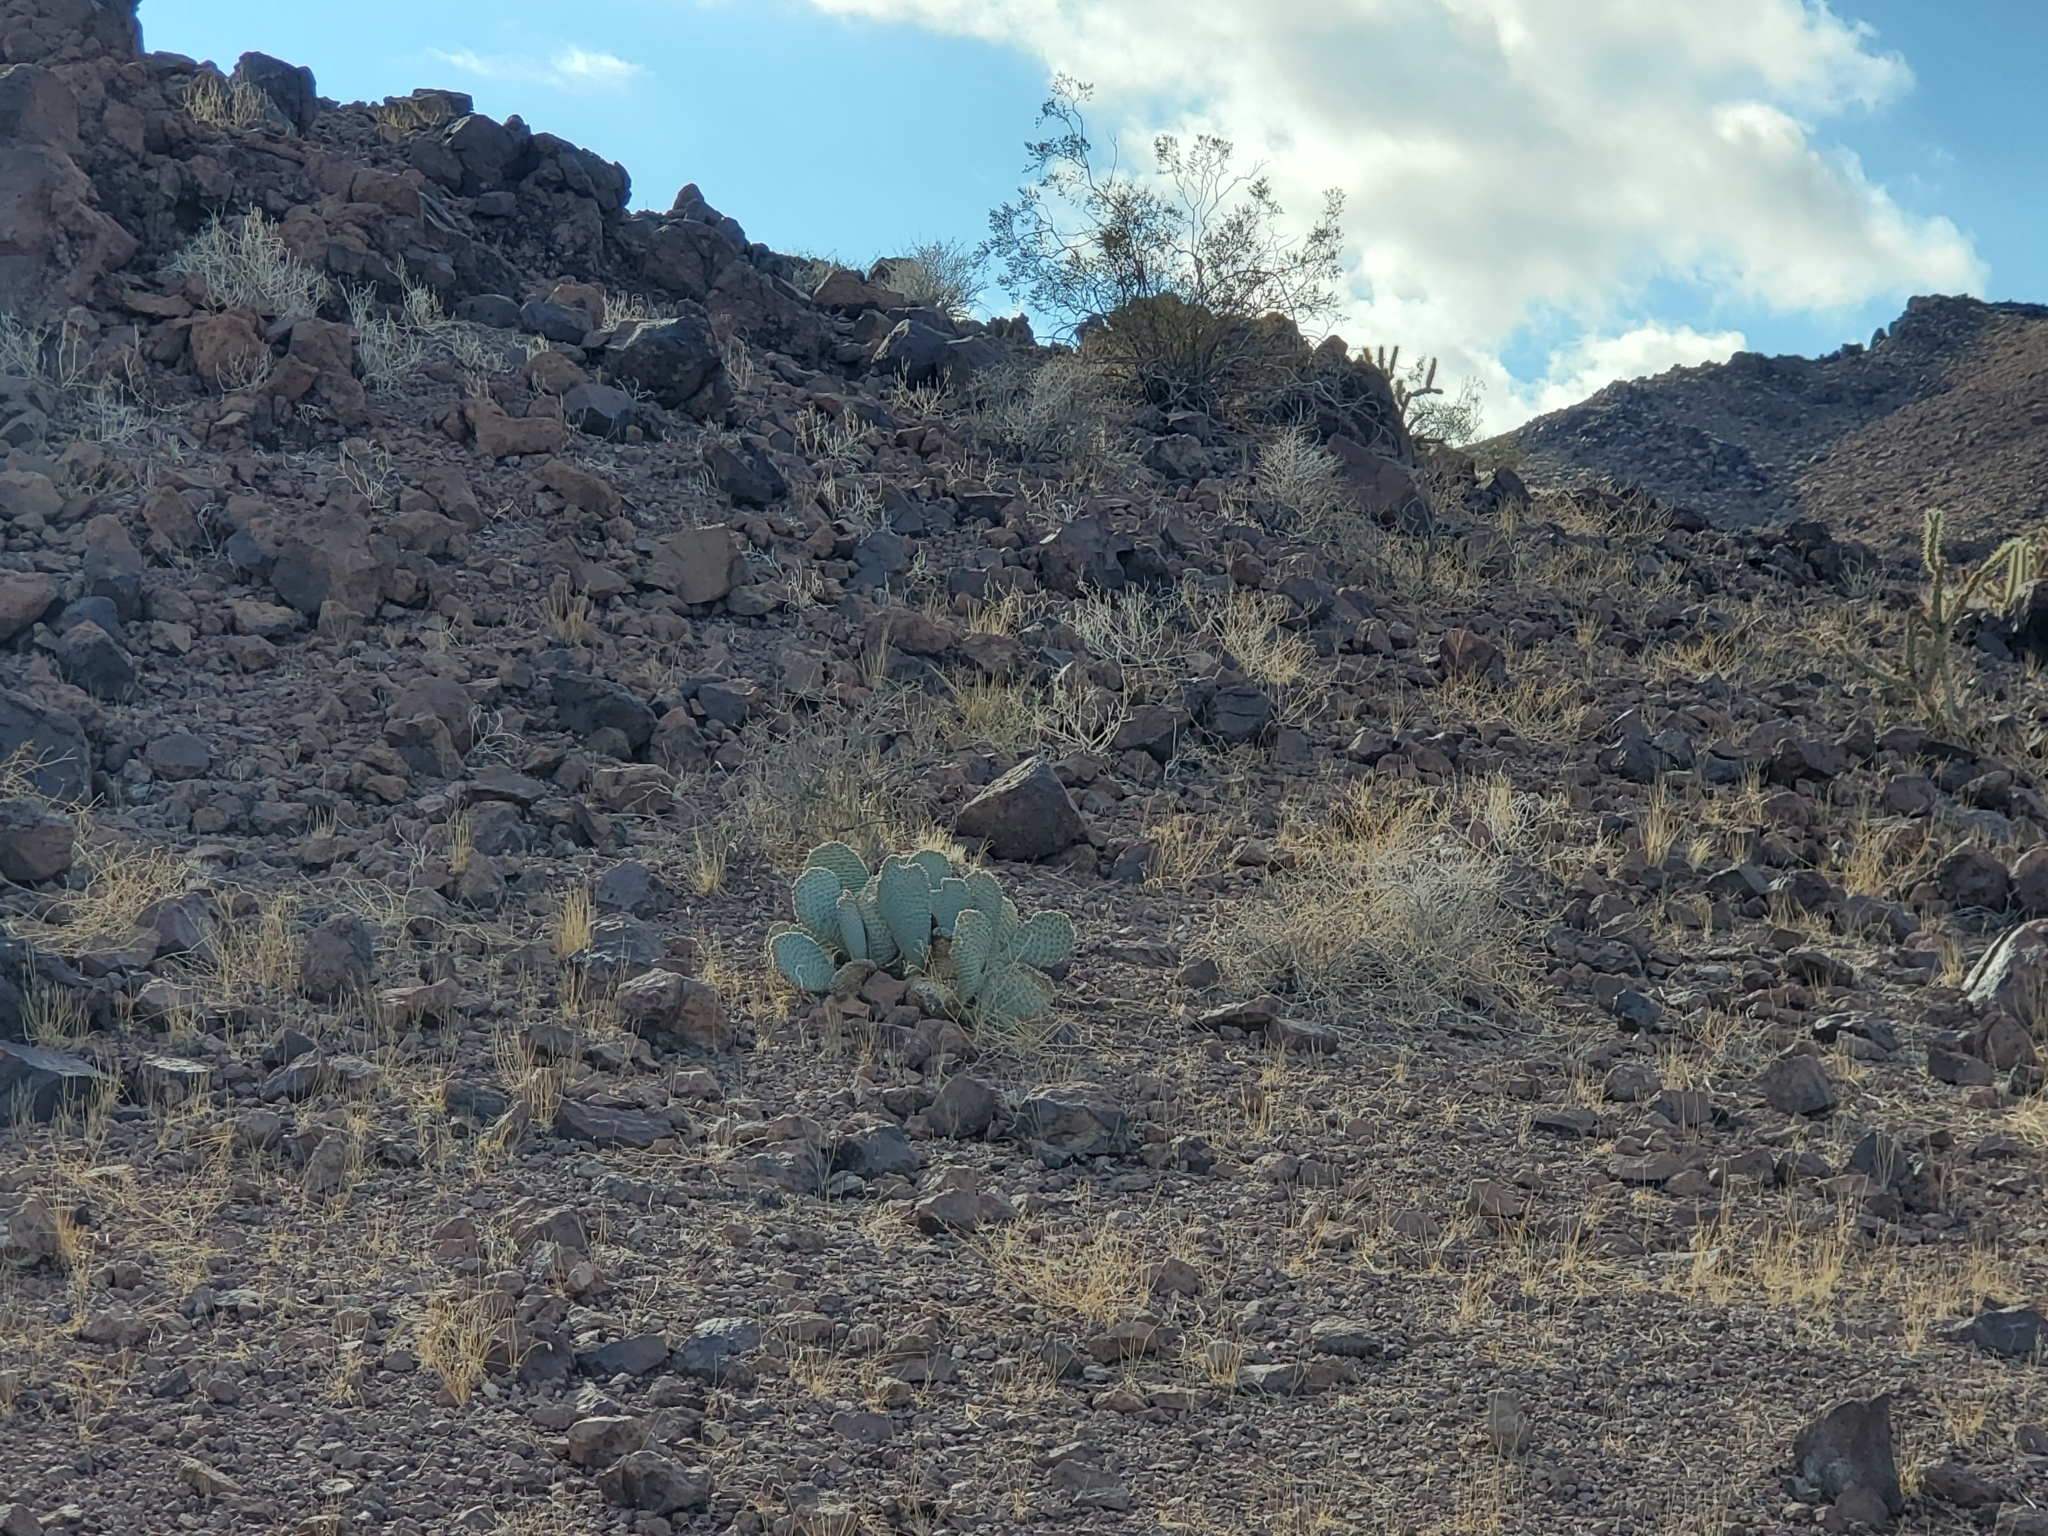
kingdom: Plantae
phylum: Tracheophyta
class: Magnoliopsida
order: Caryophyllales
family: Cactaceae
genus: Opuntia
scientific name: Opuntia basilaris
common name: Beavertail prickly-pear
